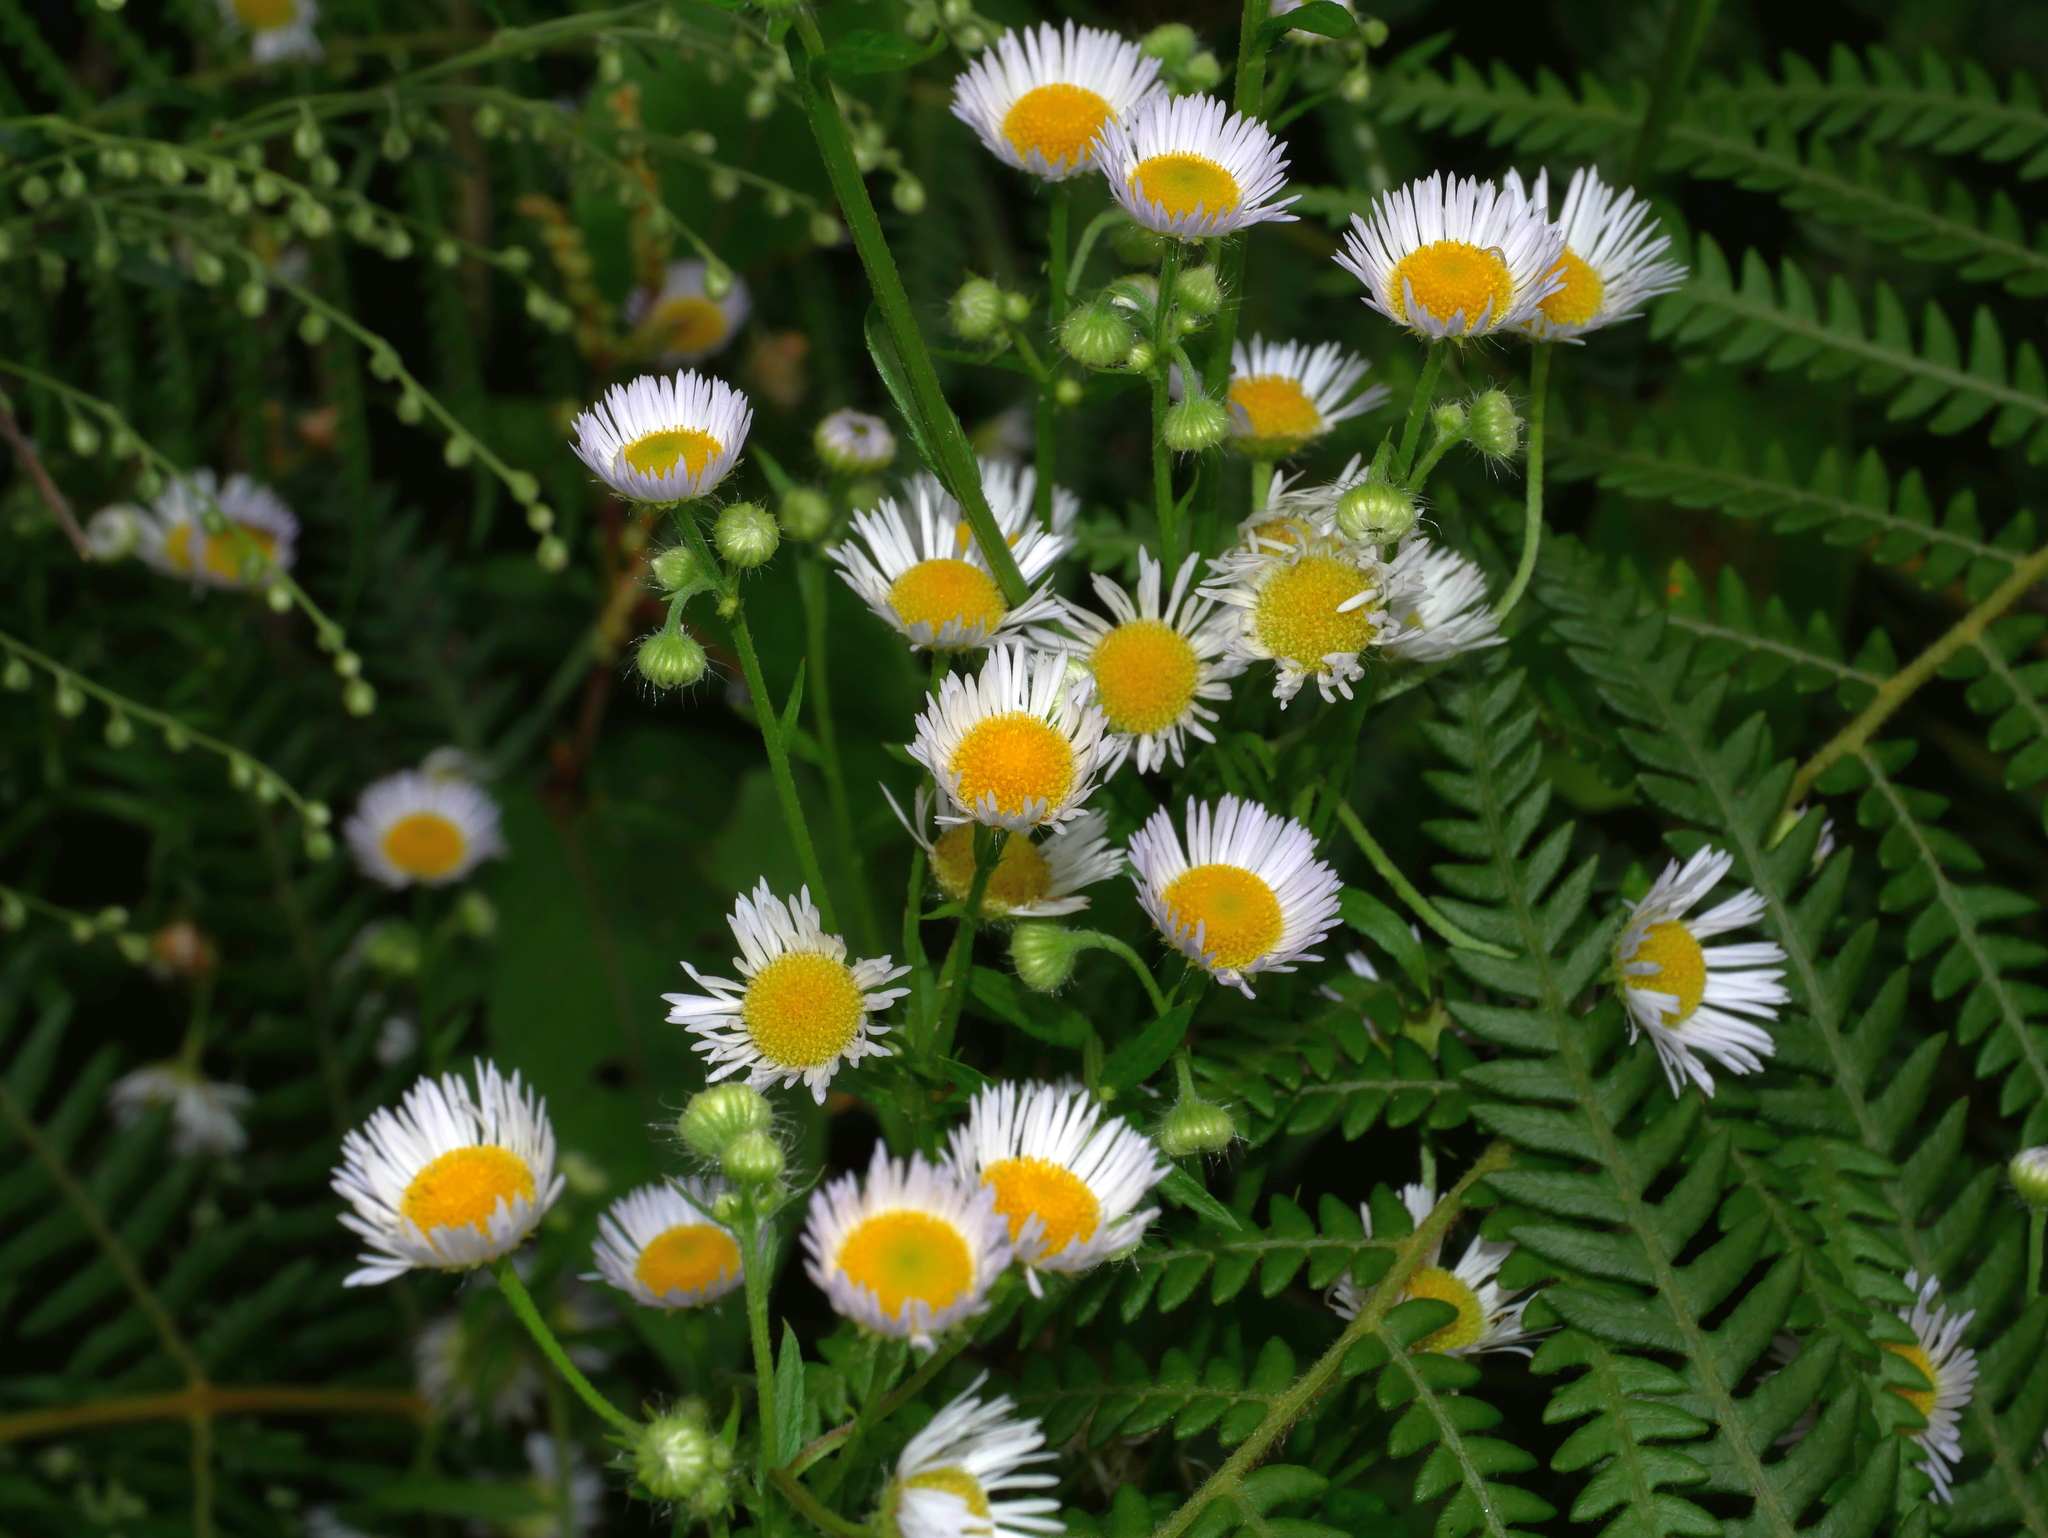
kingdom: Plantae
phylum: Tracheophyta
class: Magnoliopsida
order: Asterales
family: Asteraceae
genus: Erigeron
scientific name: Erigeron annuus
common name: Tall fleabane
